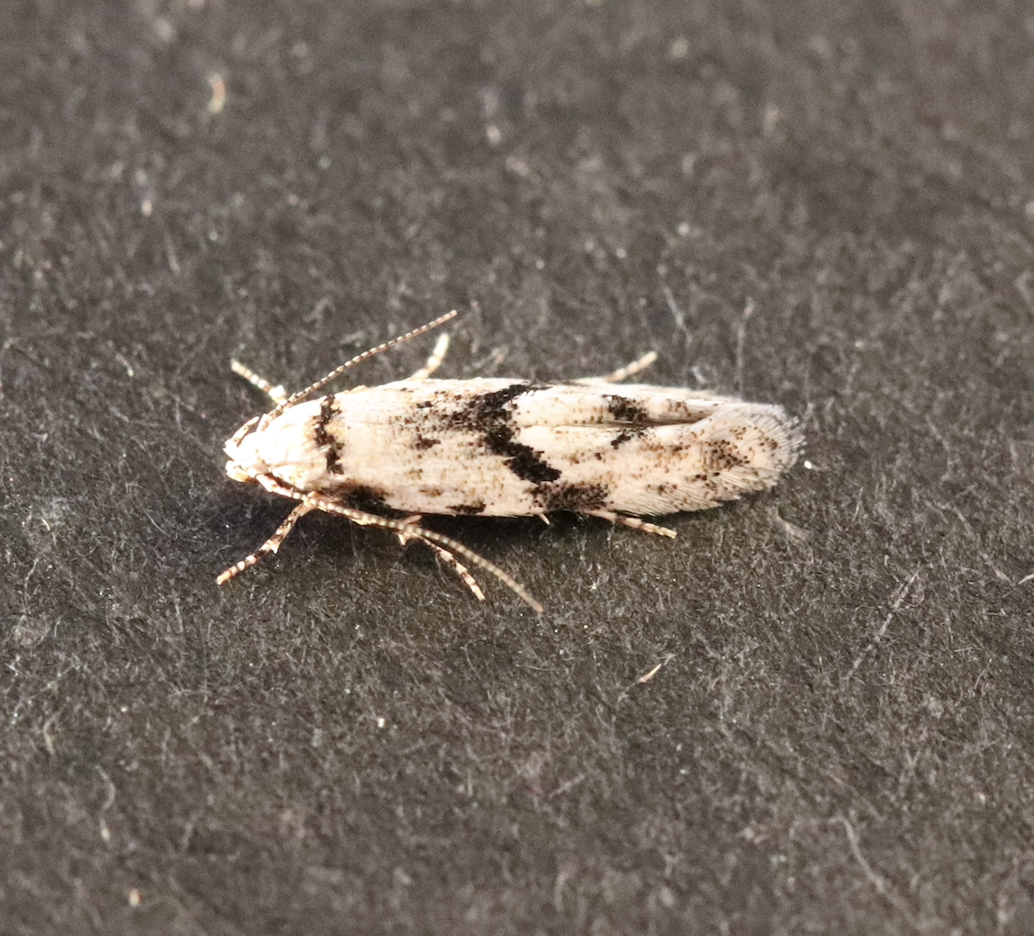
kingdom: Animalia
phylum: Arthropoda
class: Insecta
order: Lepidoptera
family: Gelechiidae
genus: Stenolechia
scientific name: Stenolechia gemmella
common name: Black-dotted groundling
